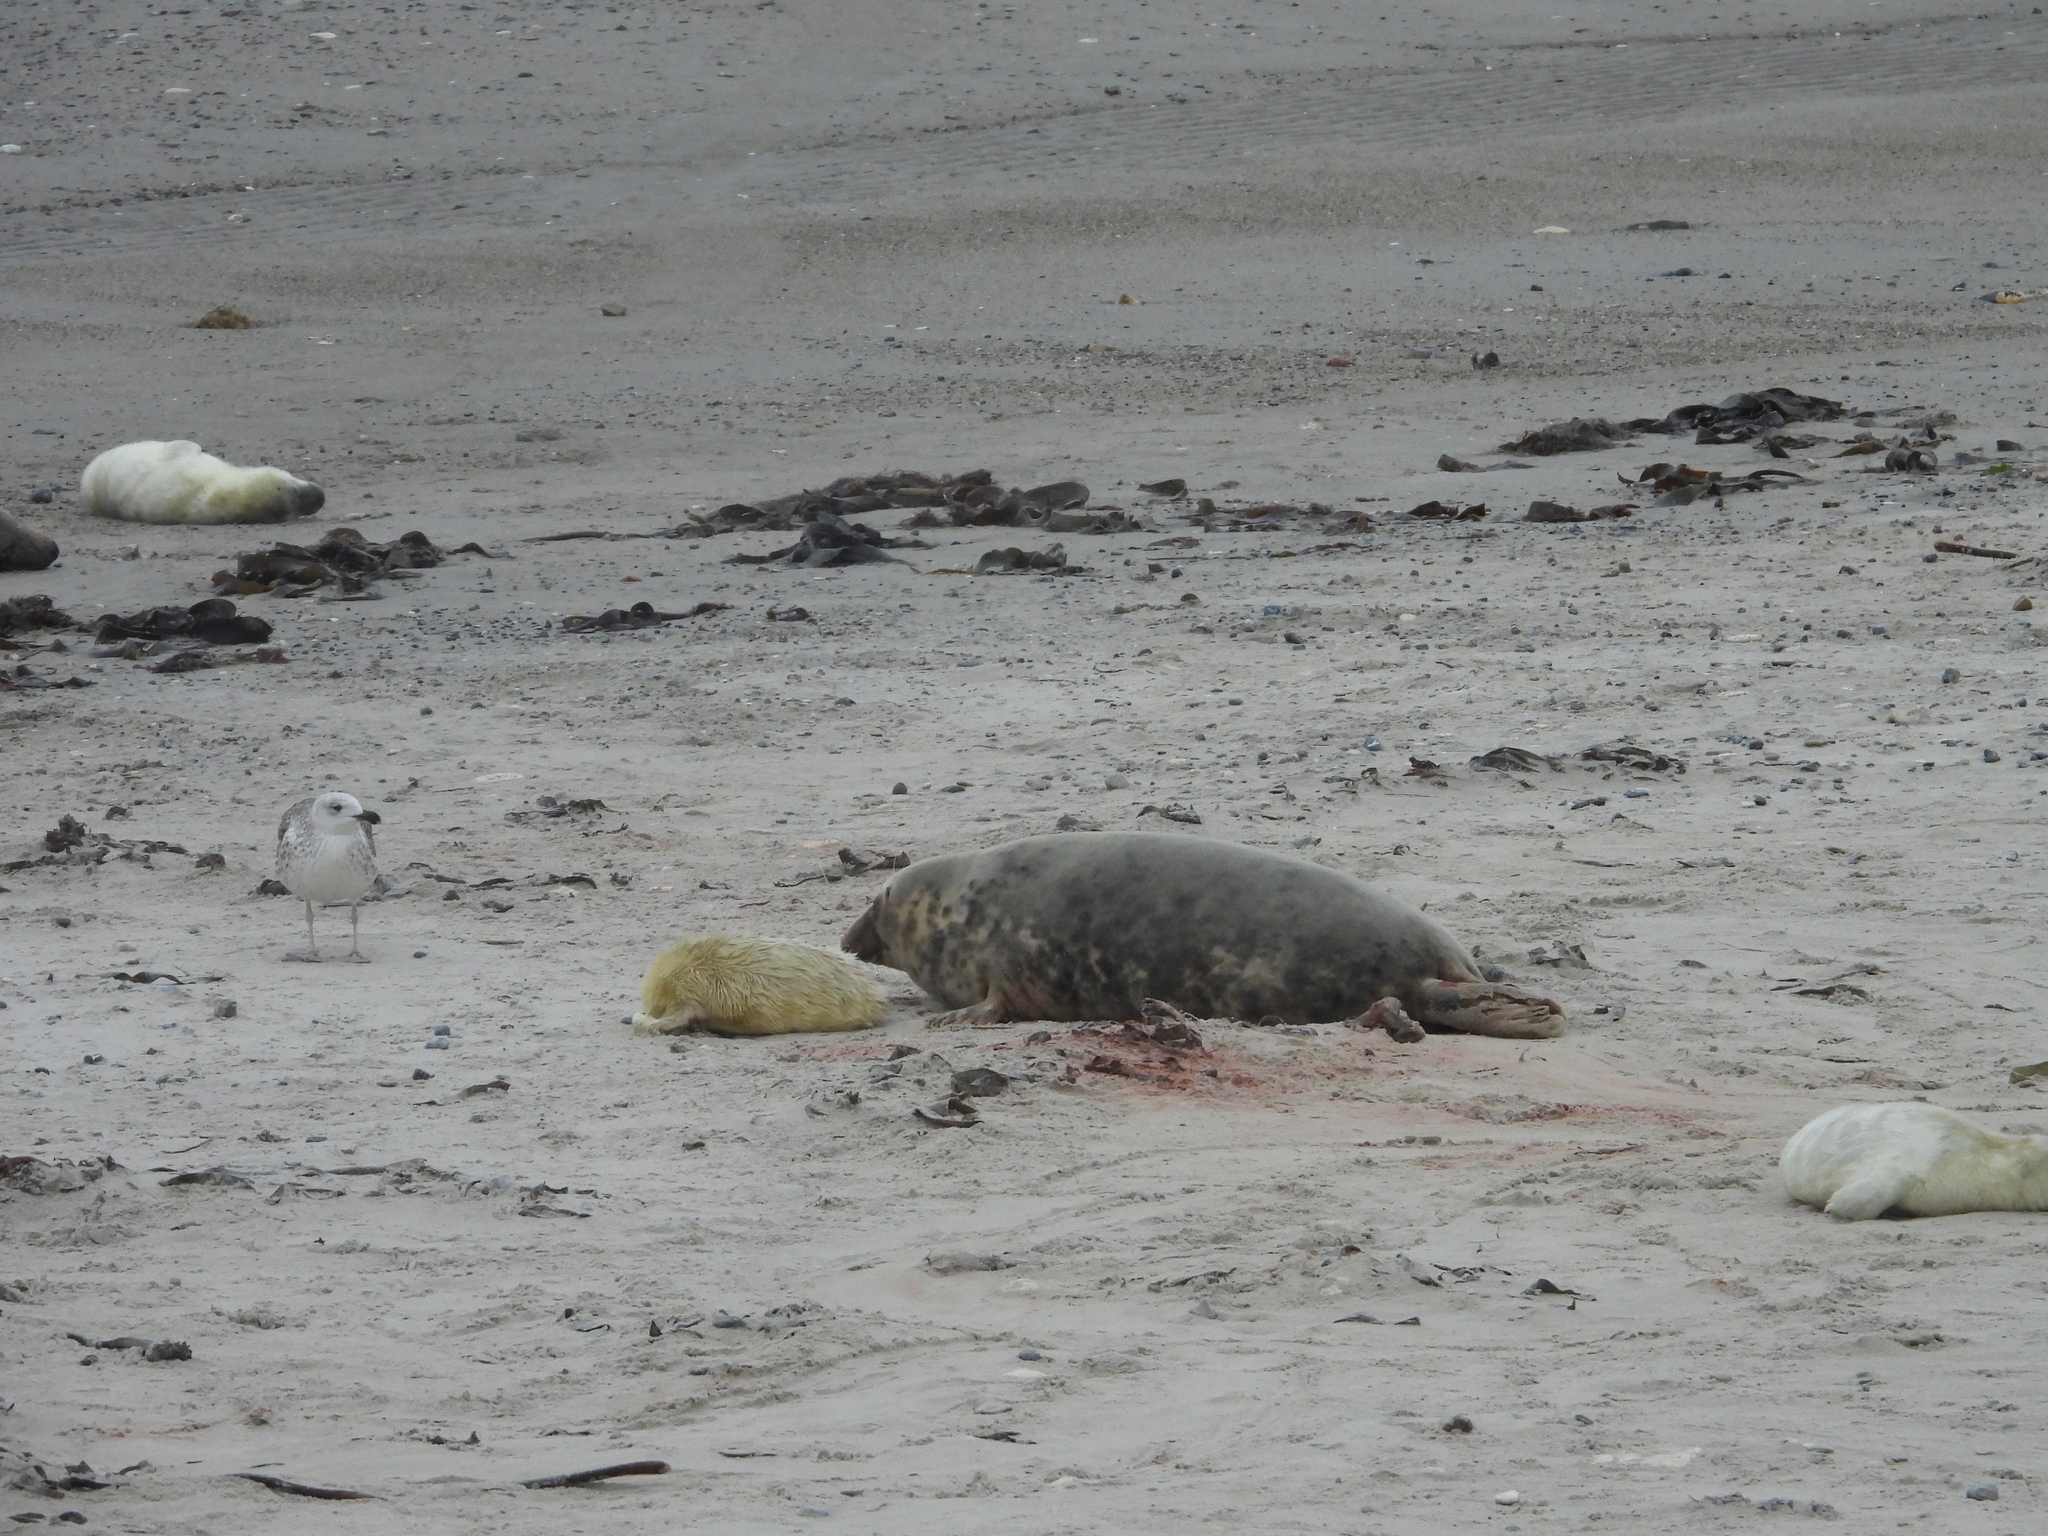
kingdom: Animalia
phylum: Chordata
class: Mammalia
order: Carnivora
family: Phocidae
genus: Halichoerus
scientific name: Halichoerus grypus
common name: Grey seal
